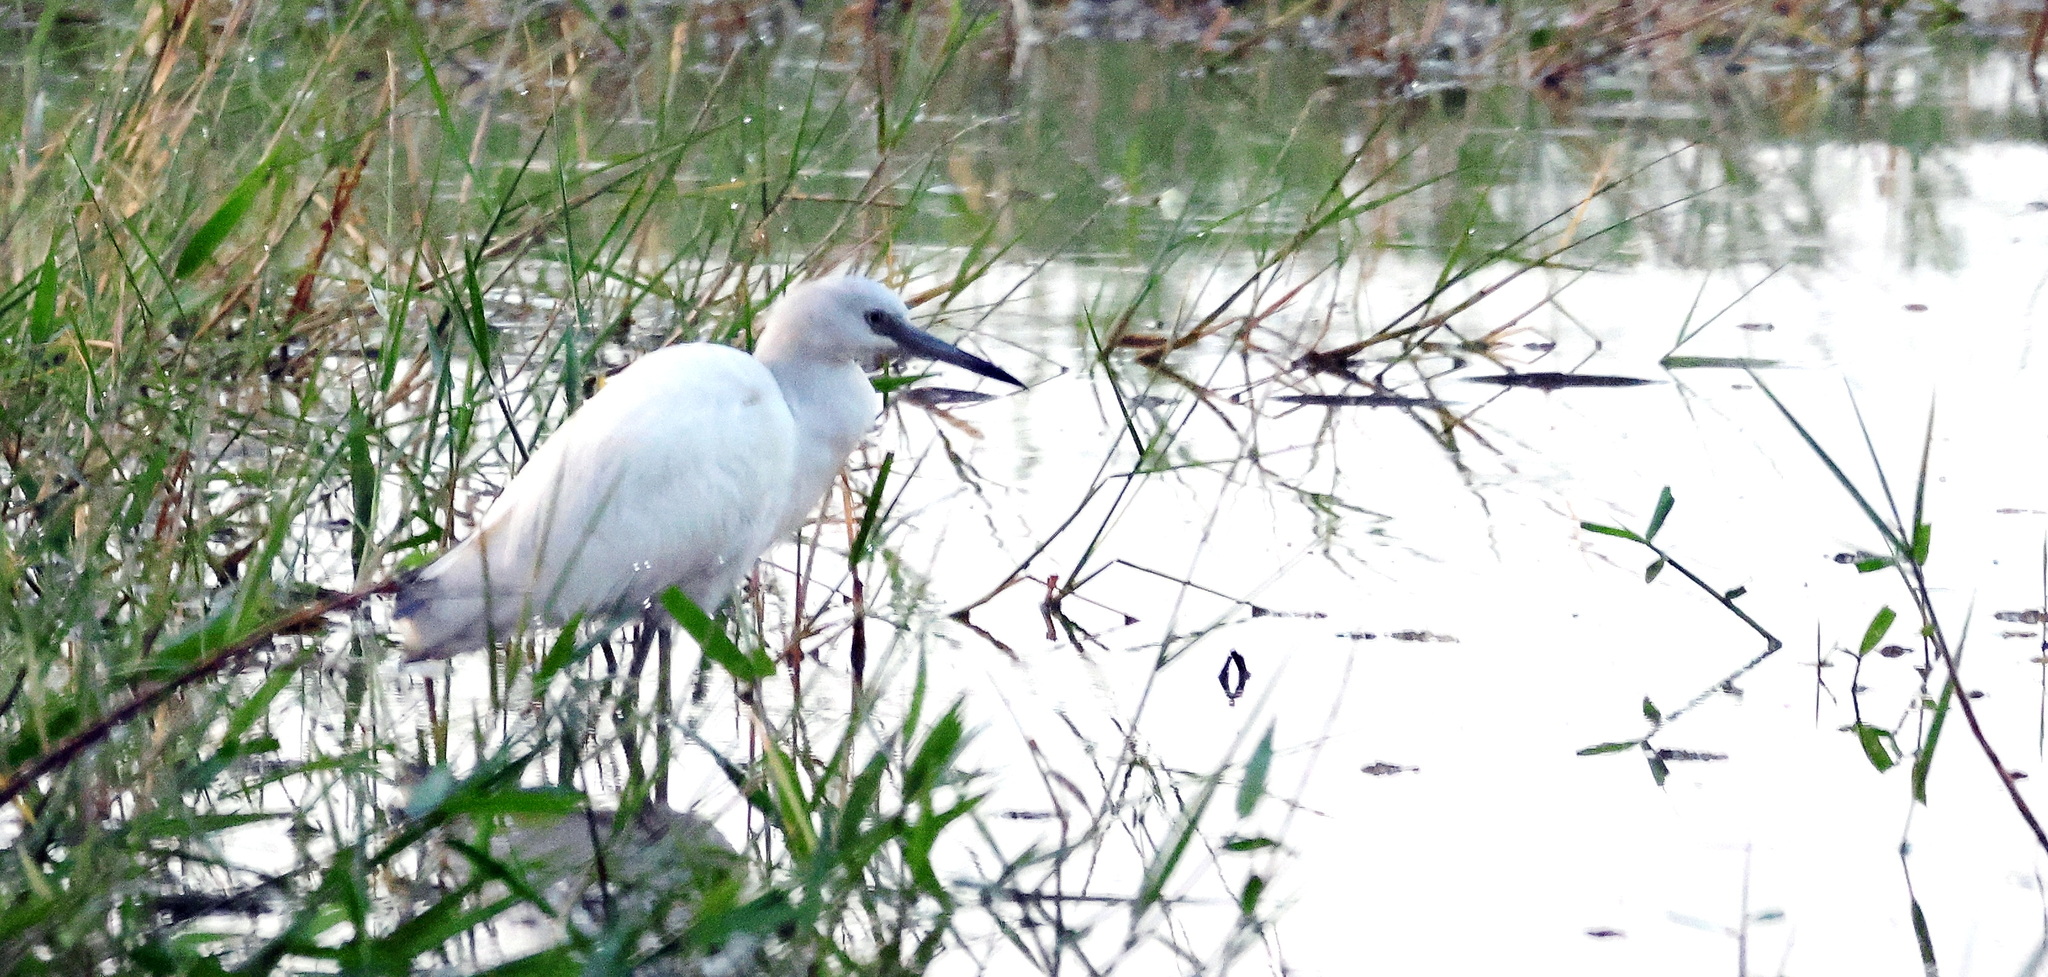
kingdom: Animalia
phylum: Chordata
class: Aves
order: Pelecaniformes
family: Ardeidae
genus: Egretta
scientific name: Egretta caerulea
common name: Little blue heron
